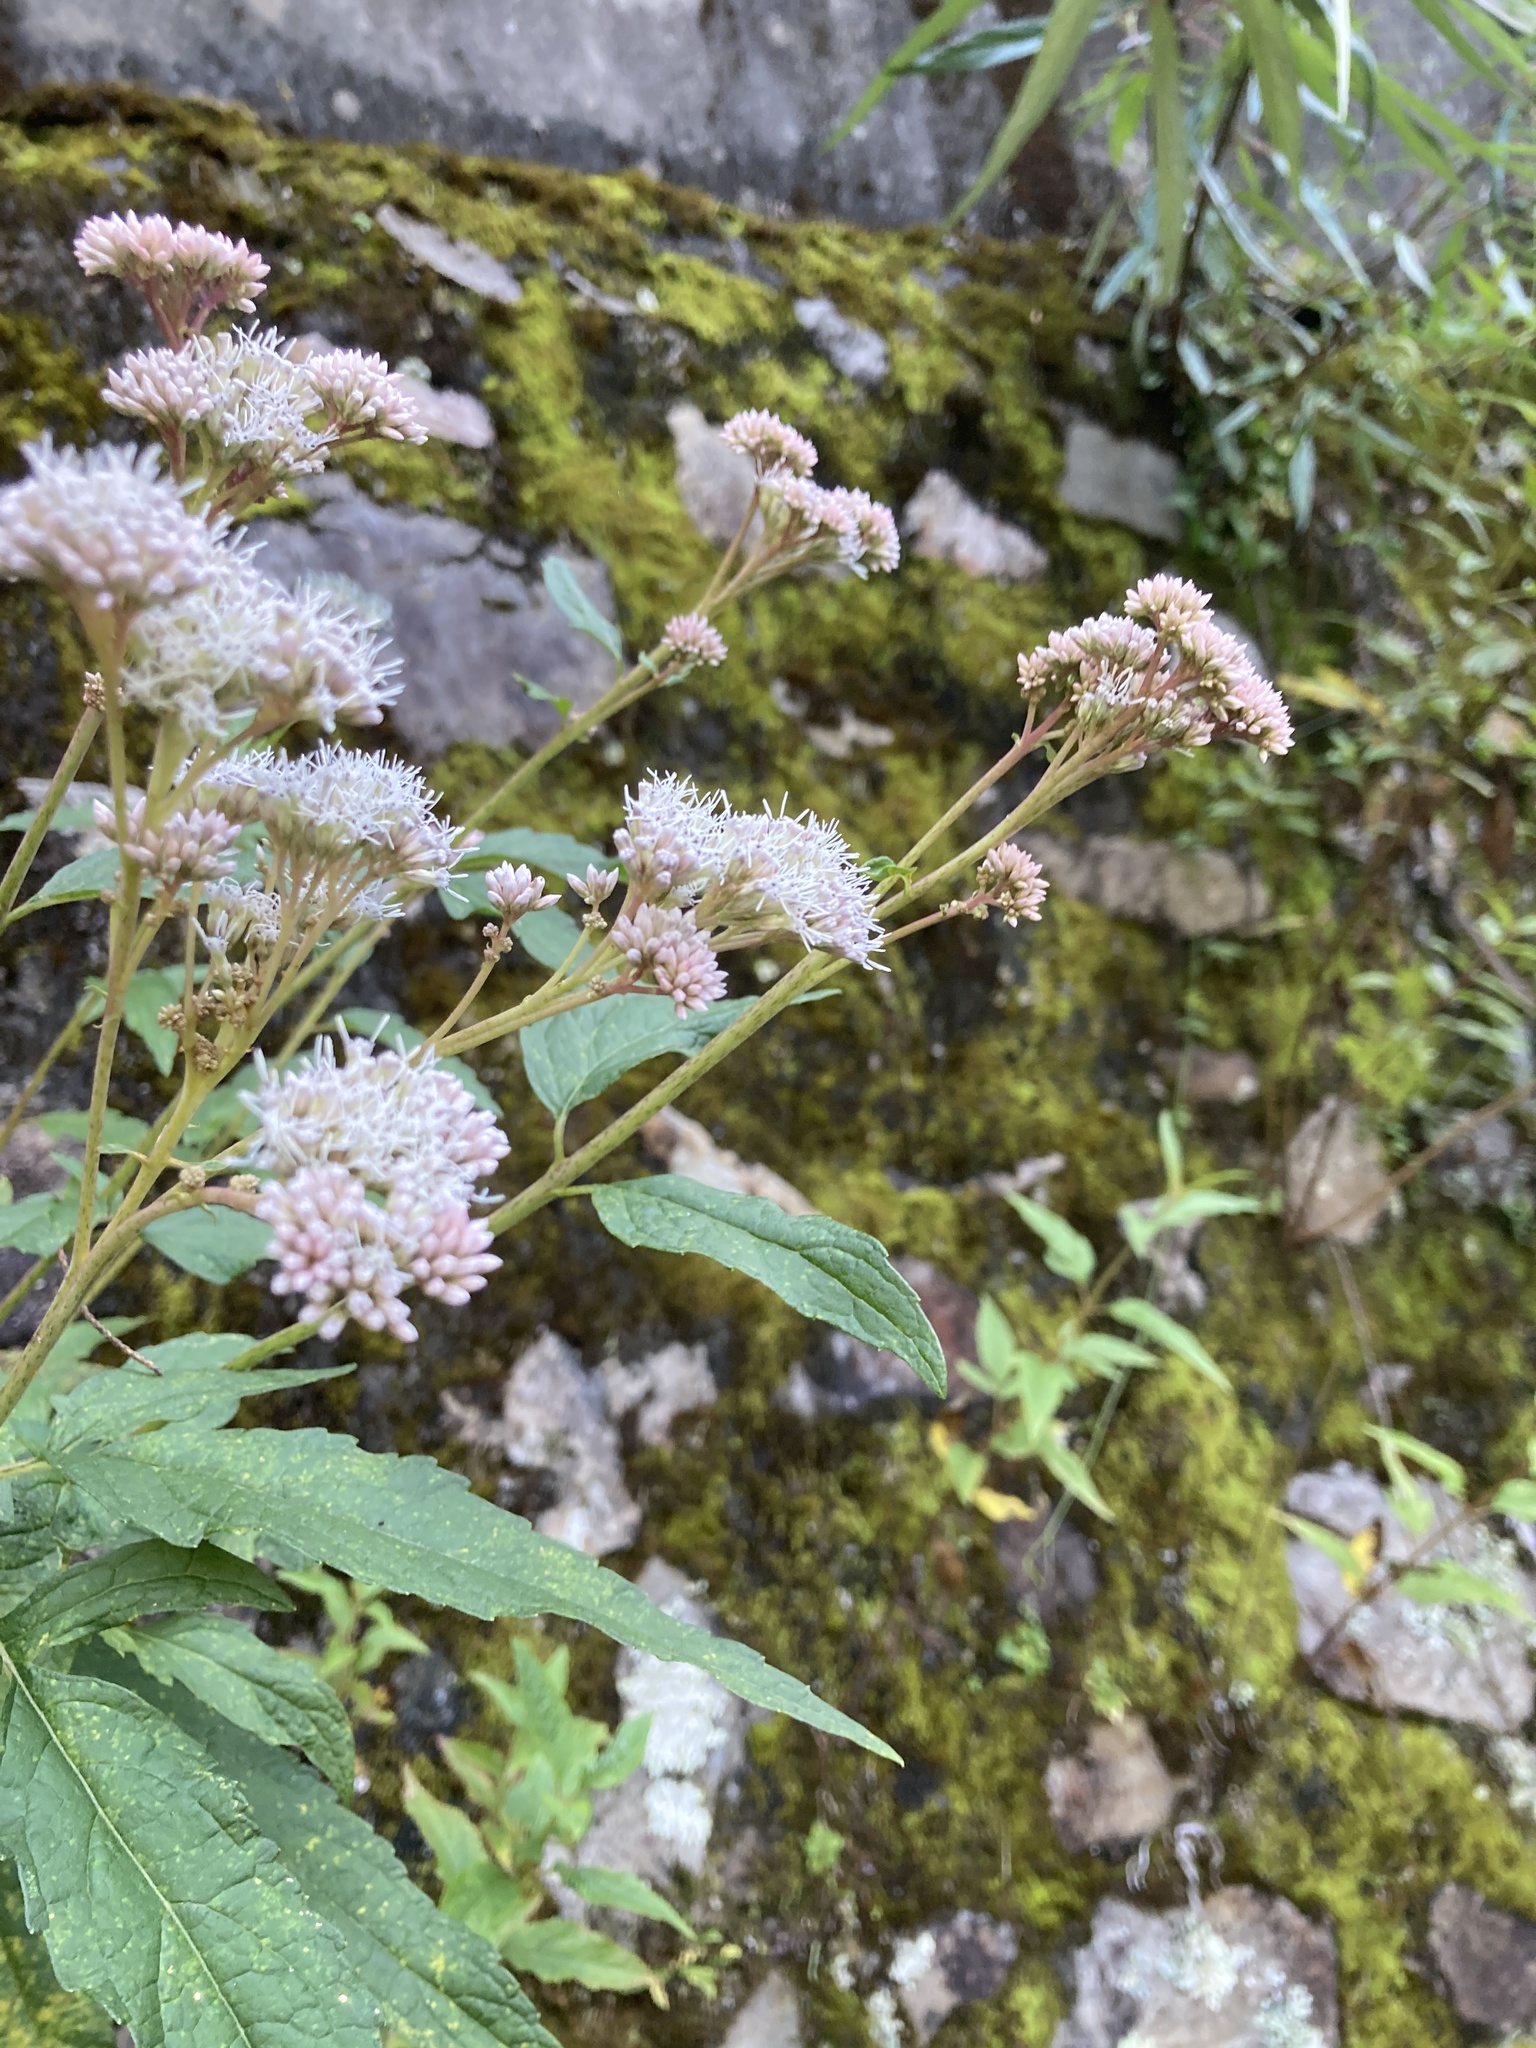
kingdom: Plantae
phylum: Tracheophyta
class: Magnoliopsida
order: Asterales
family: Asteraceae
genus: Eupatorium
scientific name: Eupatorium formosanum
